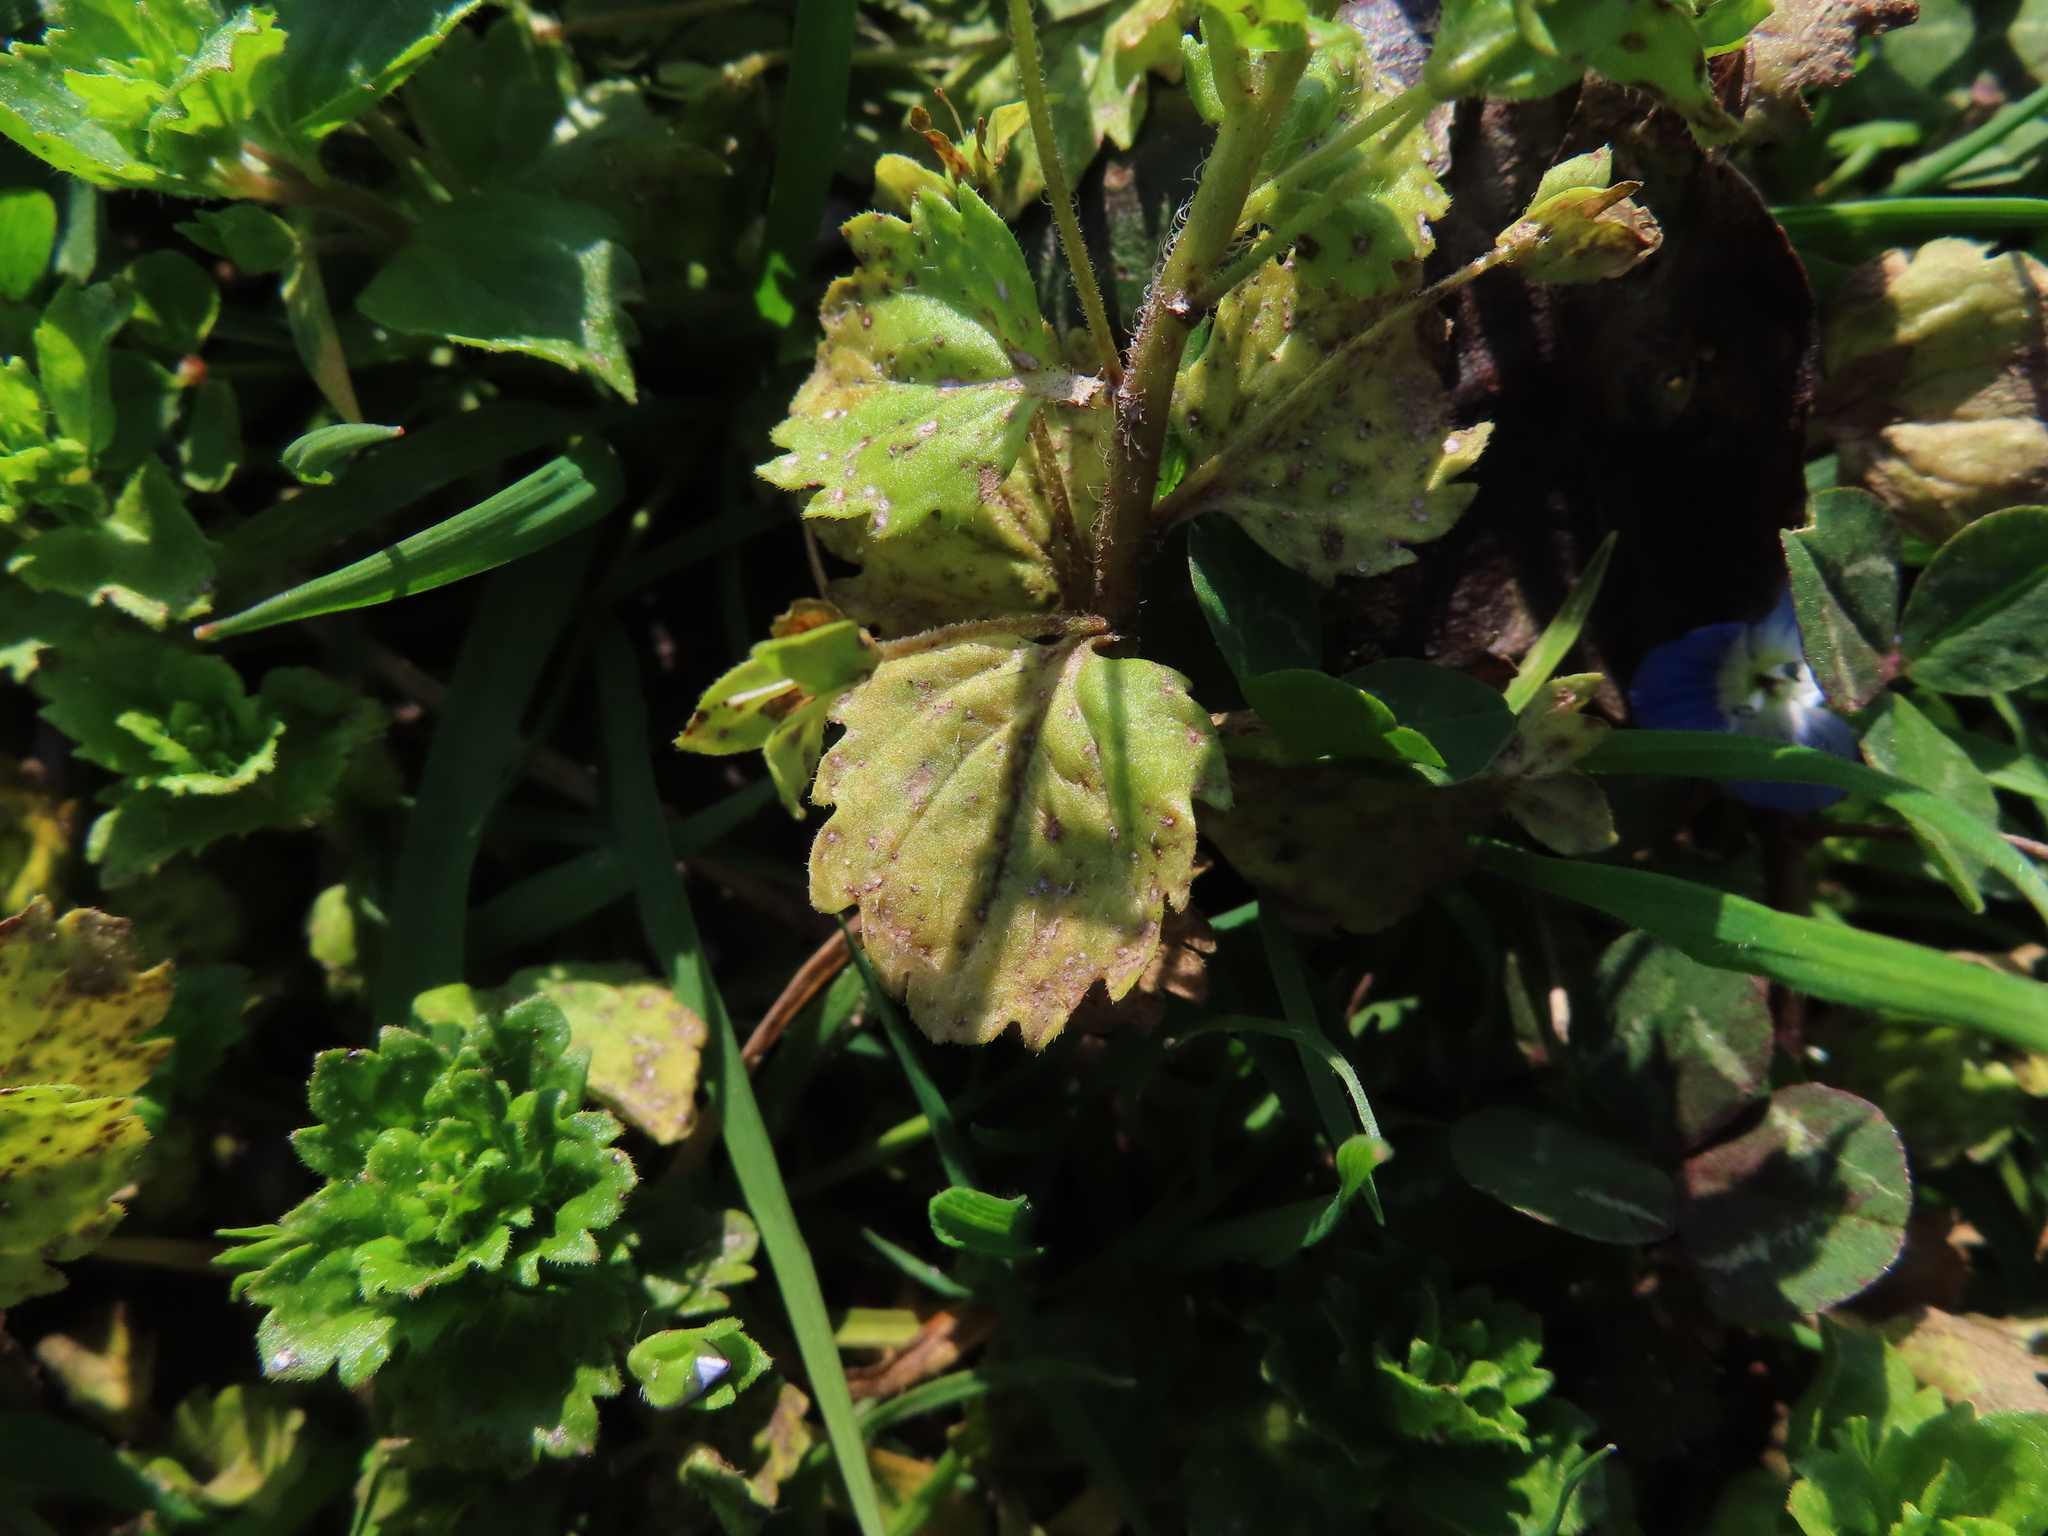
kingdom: Plantae
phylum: Tracheophyta
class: Magnoliopsida
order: Lamiales
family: Plantaginaceae
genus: Veronica
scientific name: Veronica persica
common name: Common field-speedwell
